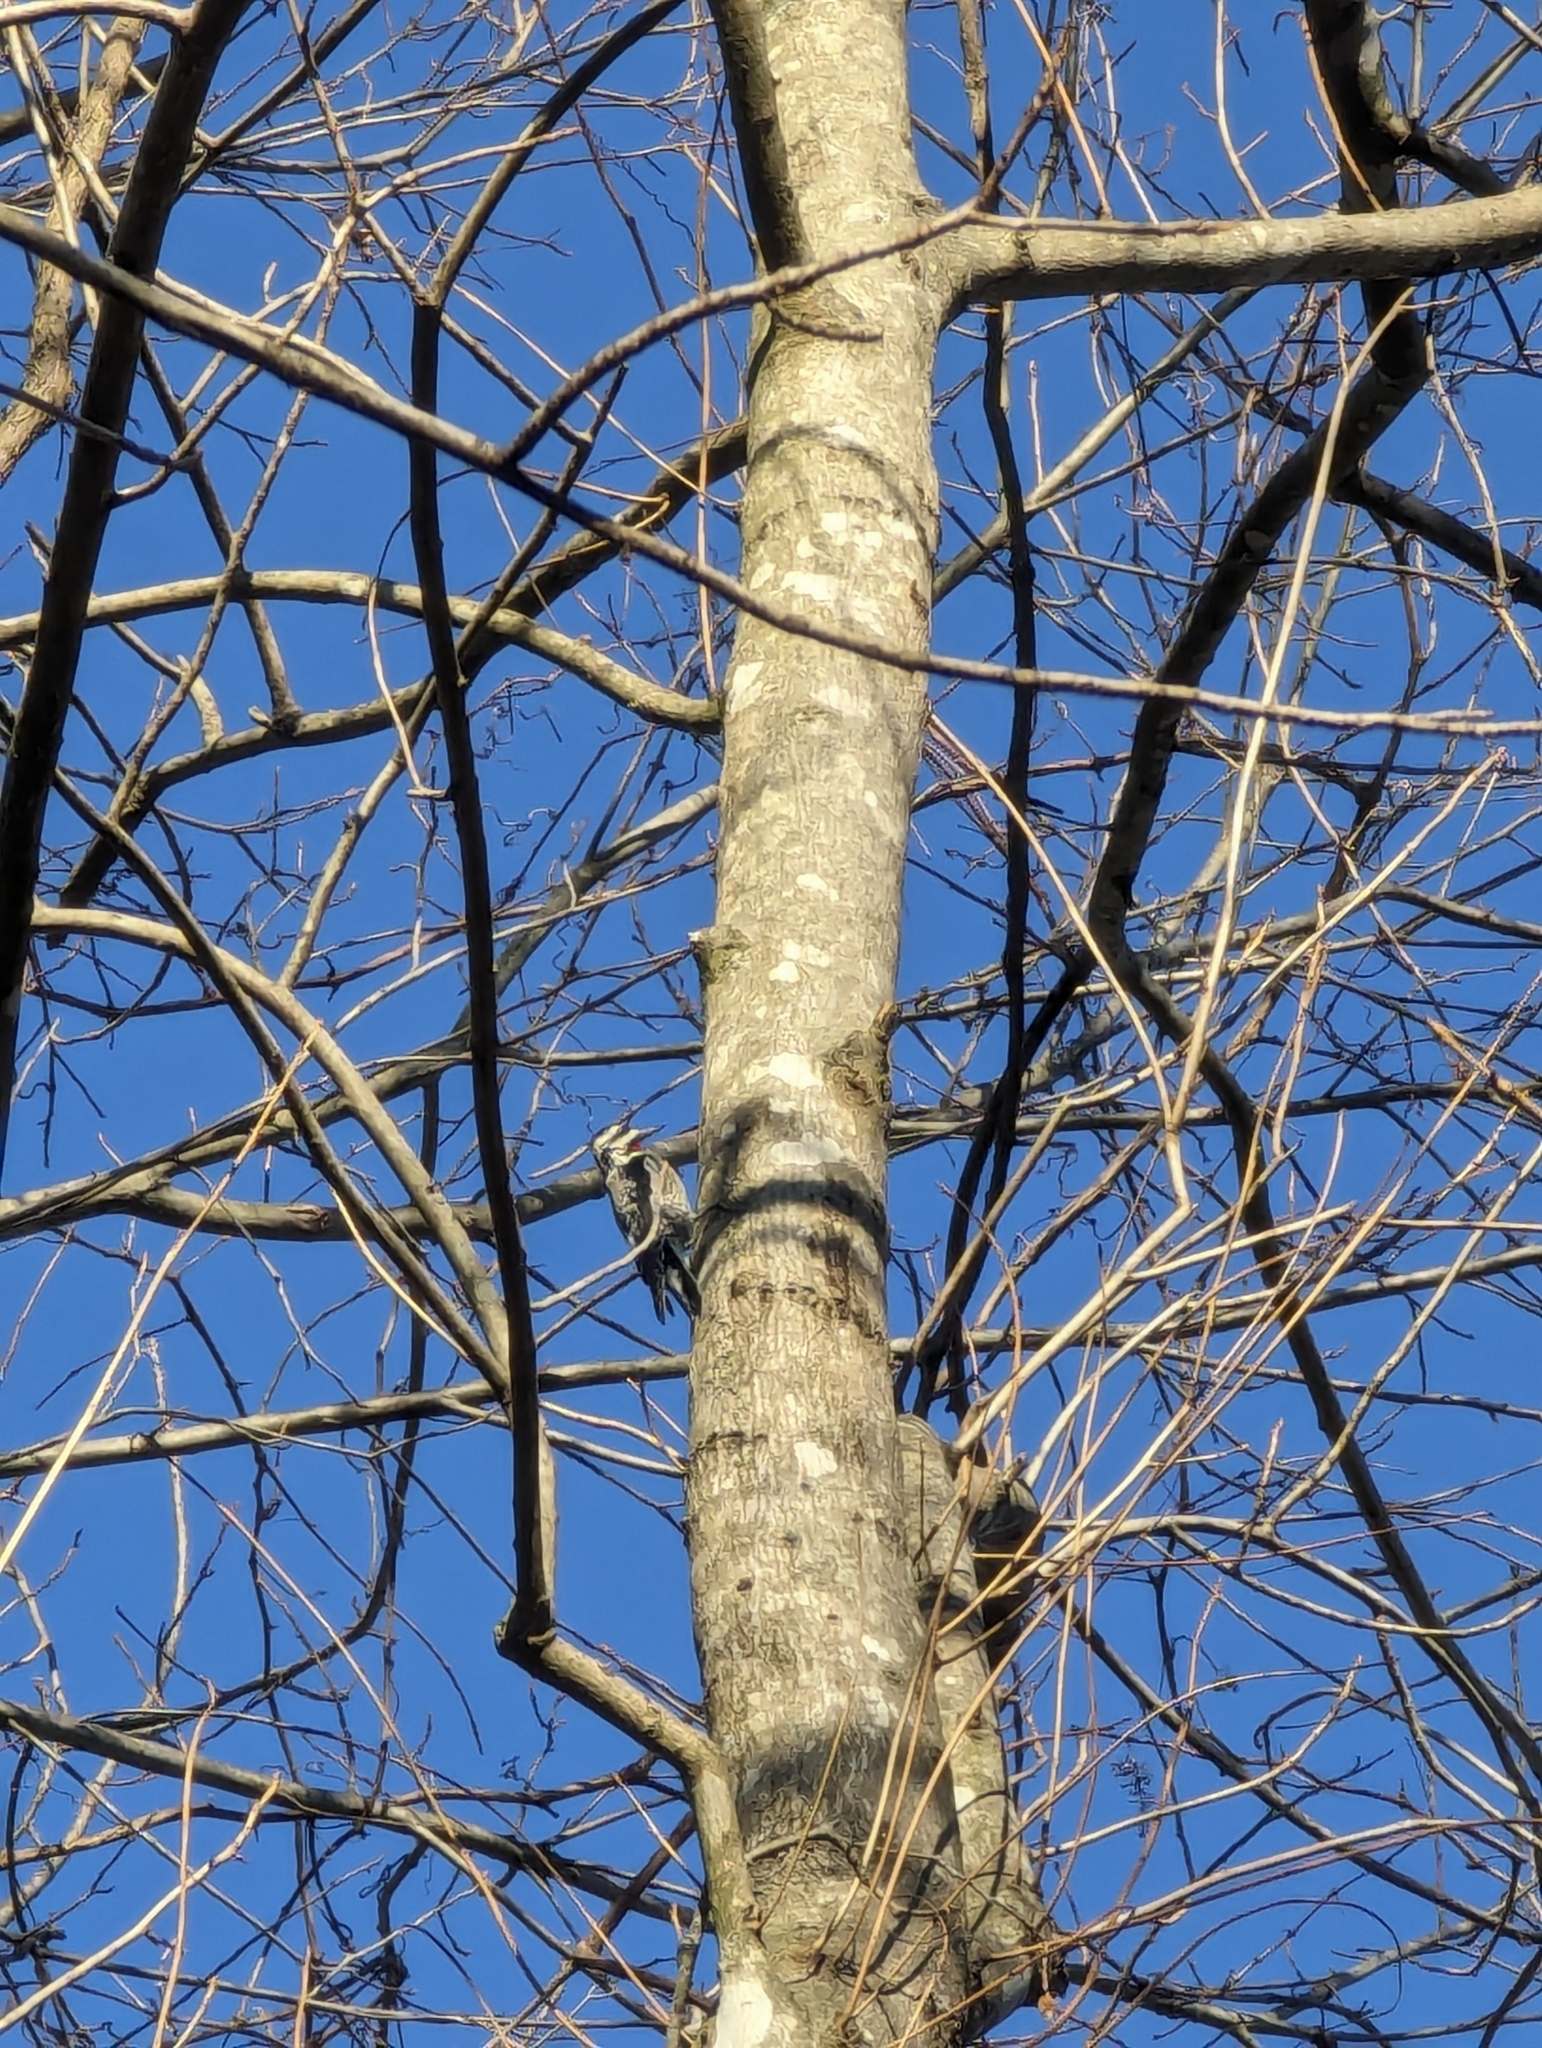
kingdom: Animalia
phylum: Chordata
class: Aves
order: Piciformes
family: Picidae
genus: Sphyrapicus
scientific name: Sphyrapicus varius
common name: Yellow-bellied sapsucker
